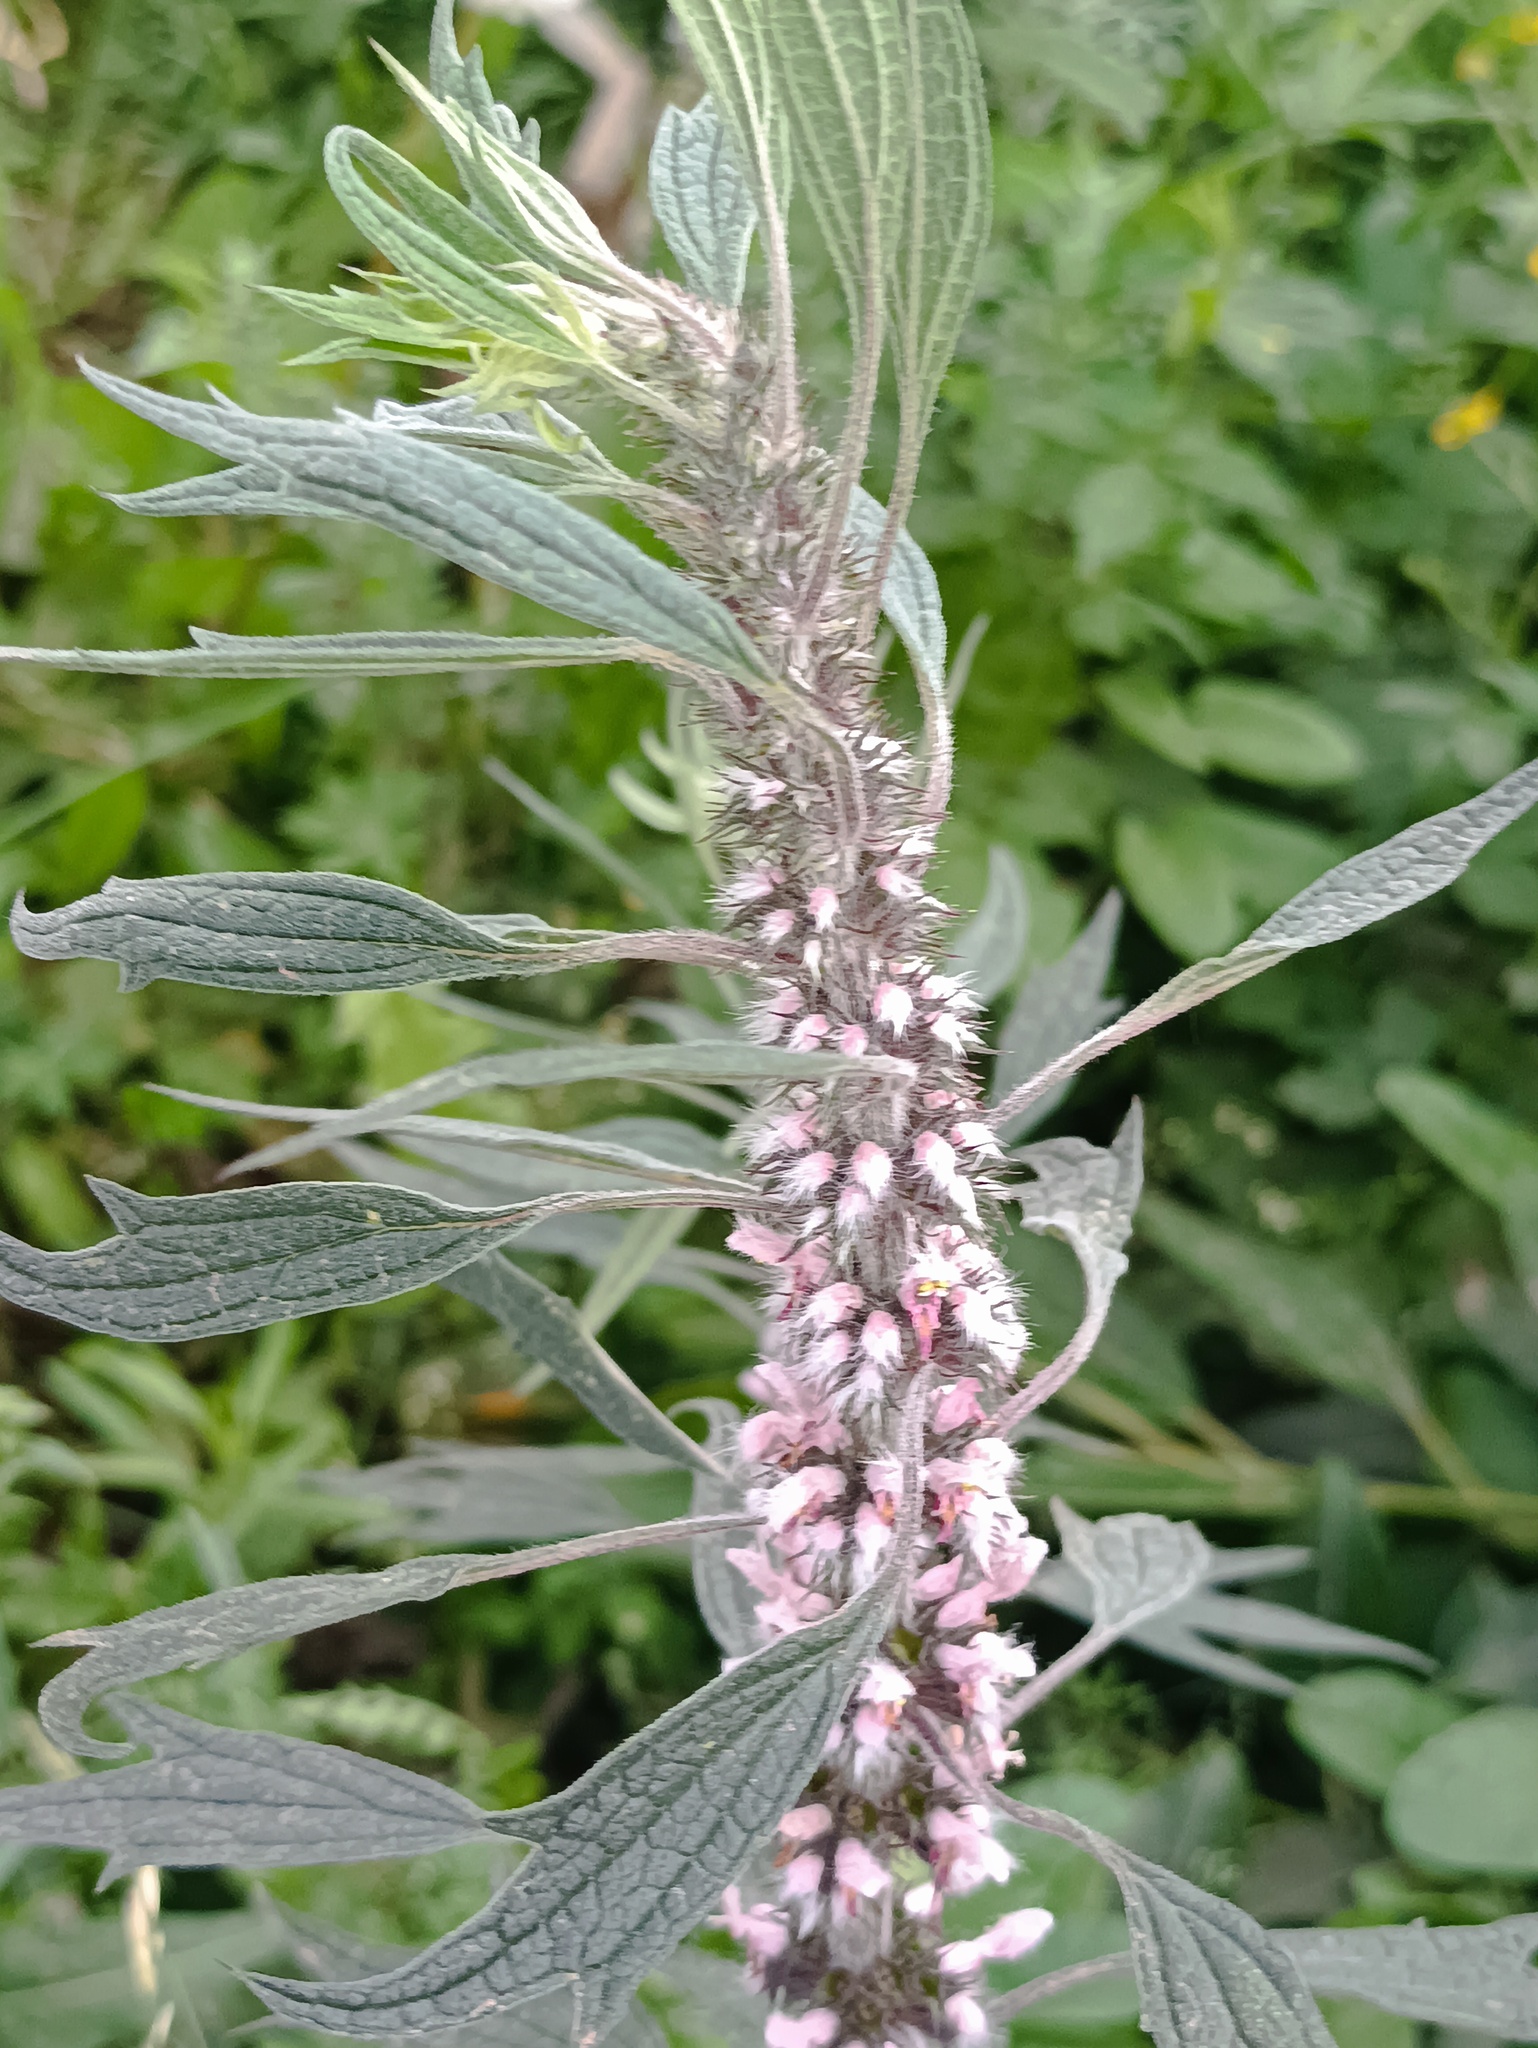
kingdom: Plantae
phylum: Tracheophyta
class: Magnoliopsida
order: Lamiales
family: Lamiaceae
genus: Leonurus
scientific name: Leonurus quinquelobatus
